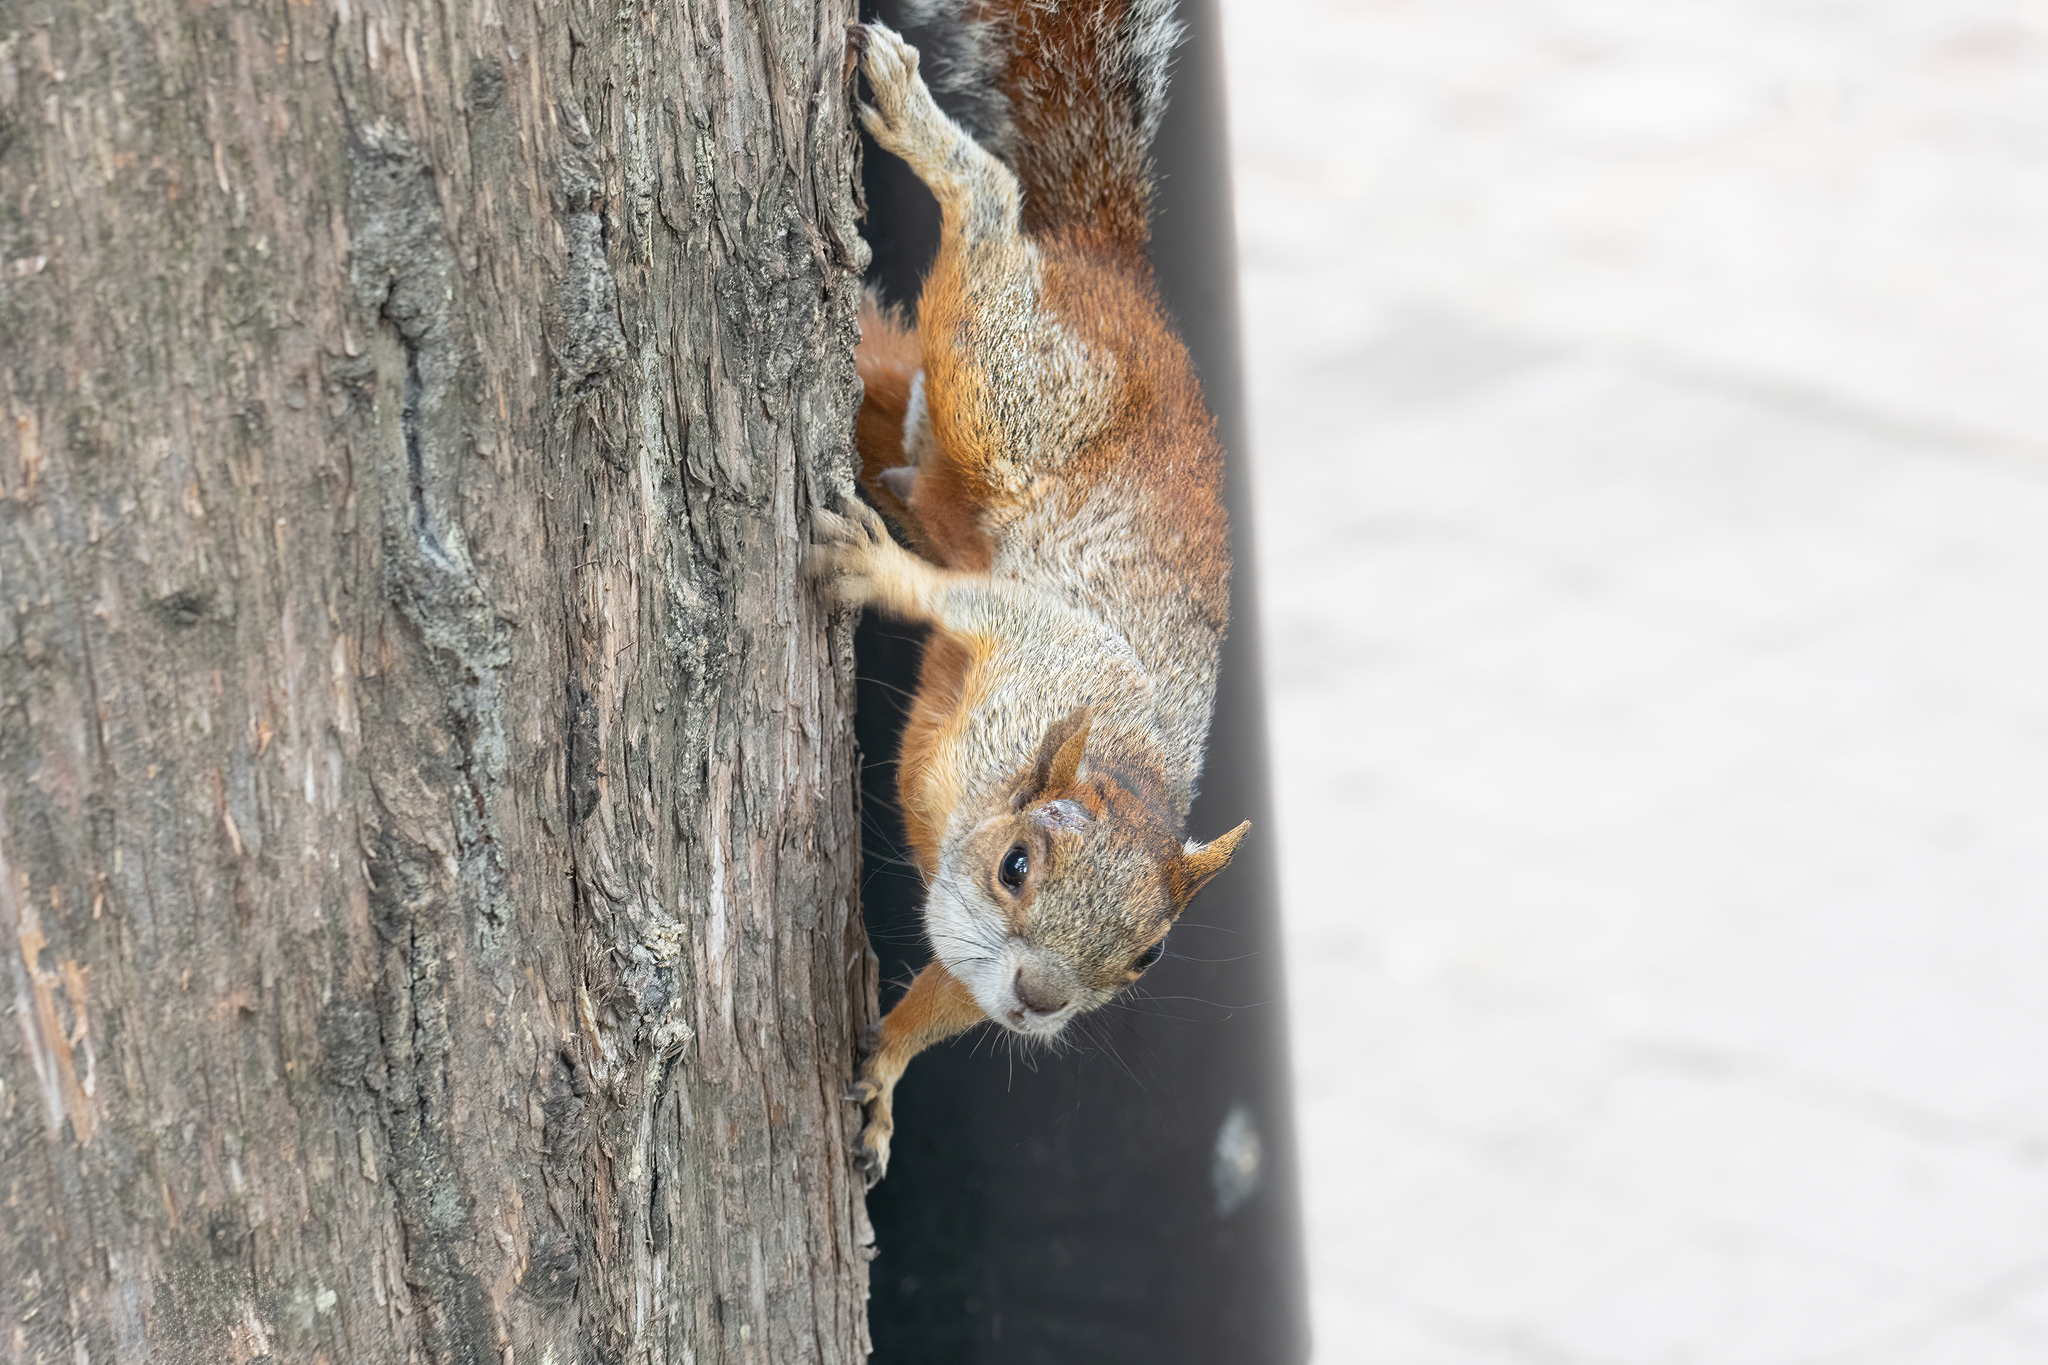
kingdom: Animalia
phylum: Chordata
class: Mammalia
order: Rodentia
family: Sciuridae
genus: Sciurus
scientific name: Sciurus aureogaster
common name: Red-bellied squirrel
